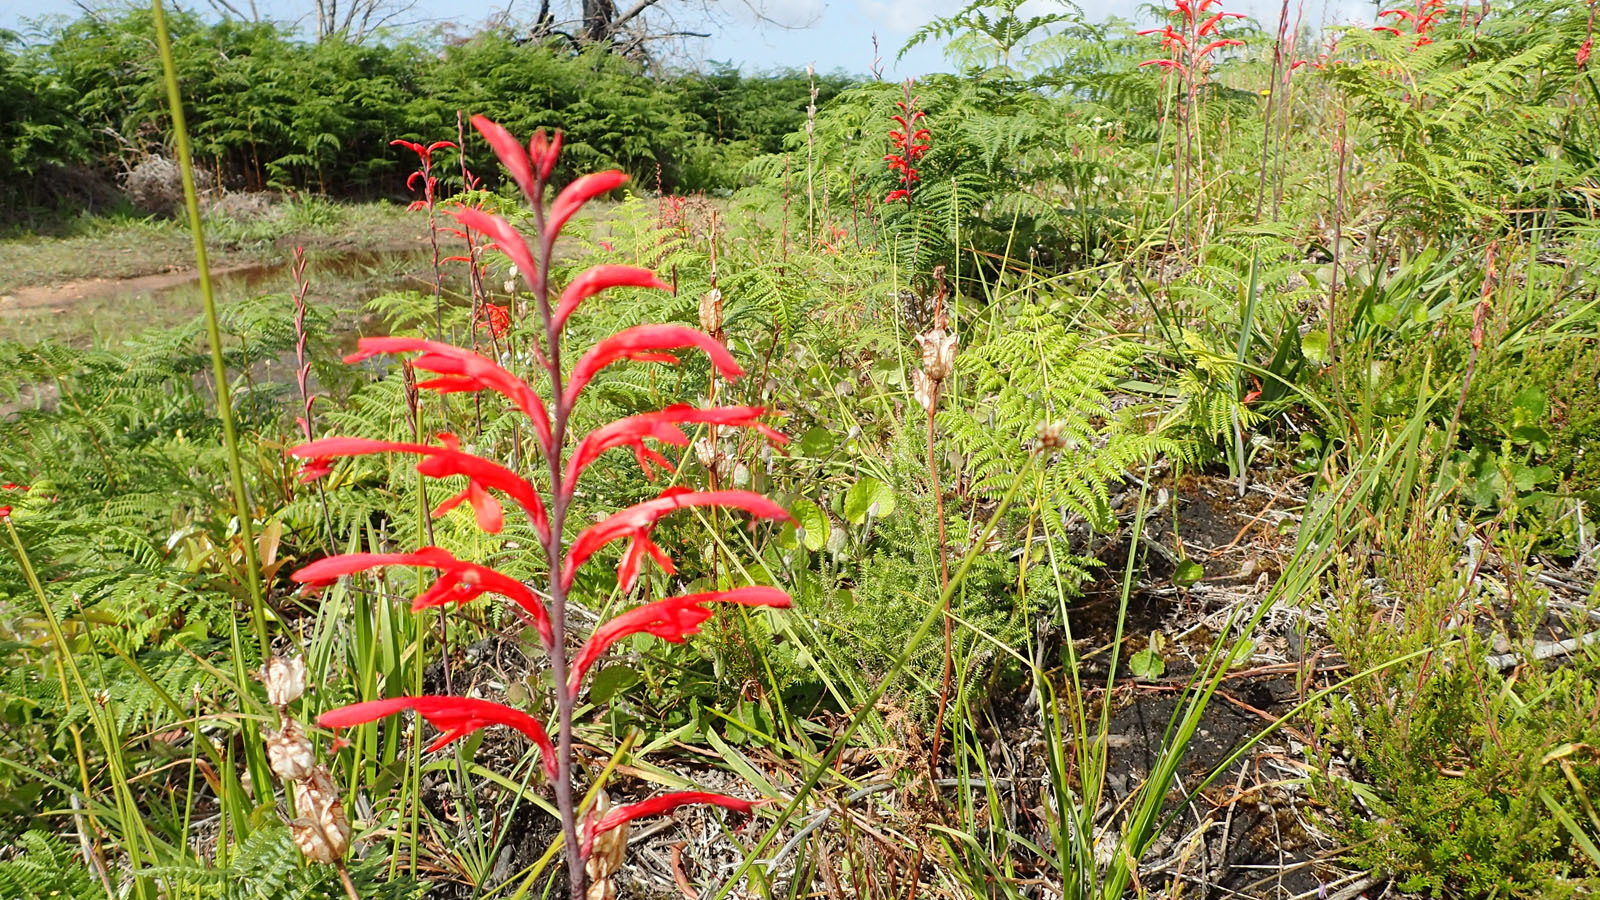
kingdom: Plantae
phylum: Tracheophyta
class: Liliopsida
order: Asparagales
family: Iridaceae
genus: Tritoniopsis
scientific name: Tritoniopsis caffra
